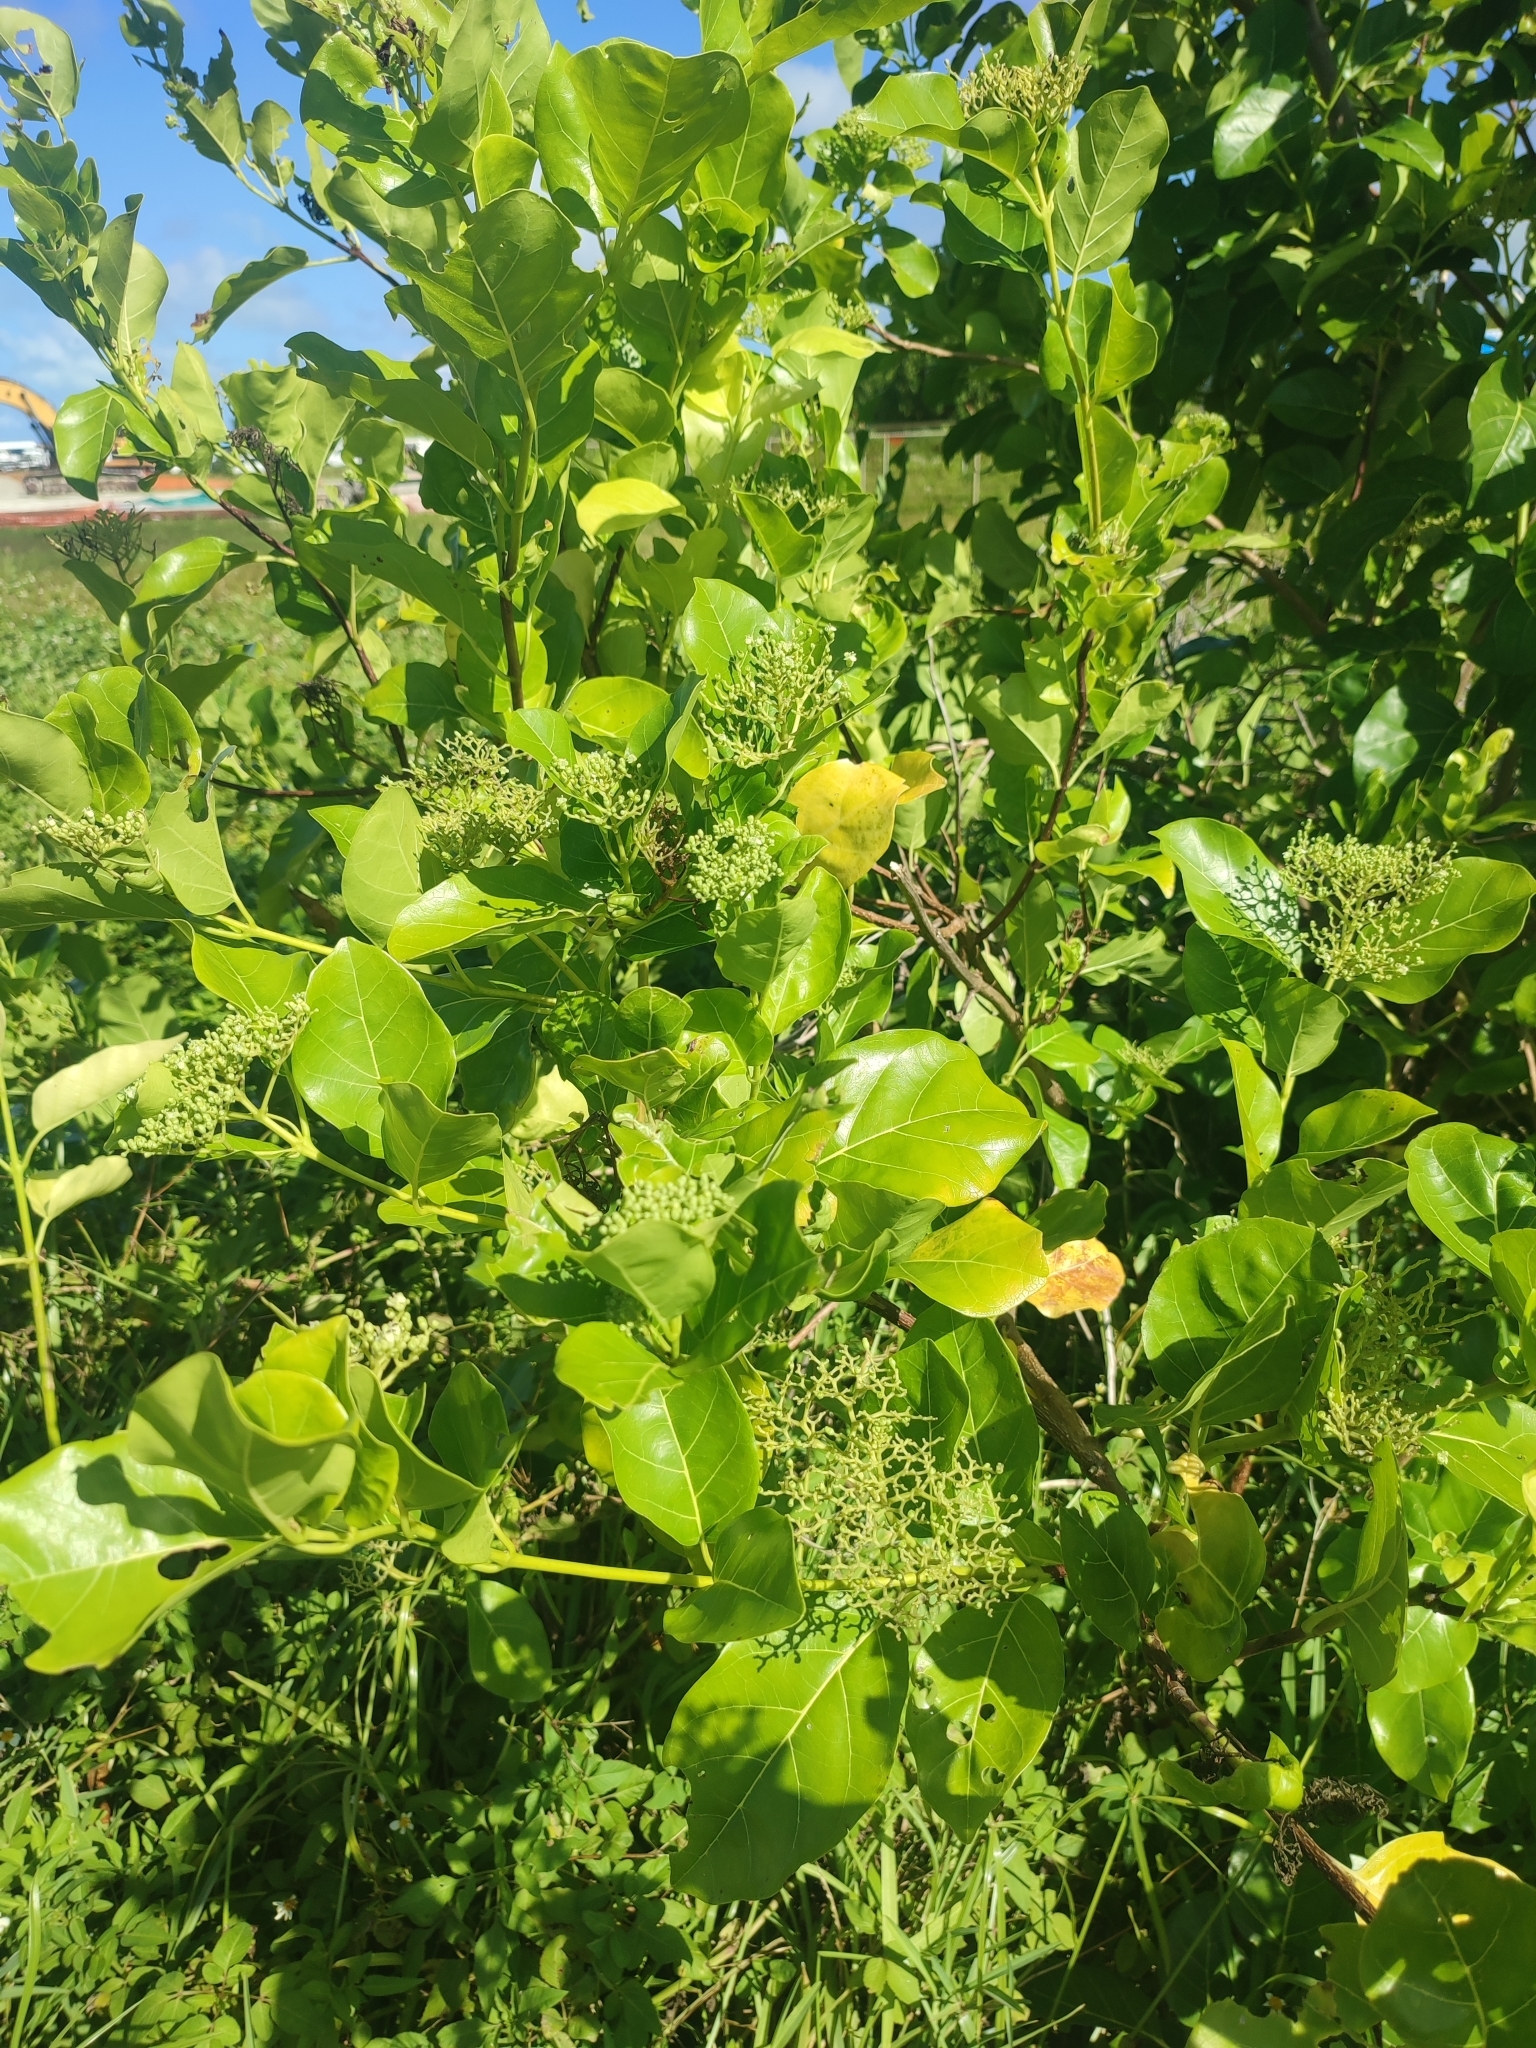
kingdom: Plantae
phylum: Tracheophyta
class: Magnoliopsida
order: Lamiales
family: Lamiaceae
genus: Premna
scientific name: Premna serratifolia
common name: Bastard guelder
